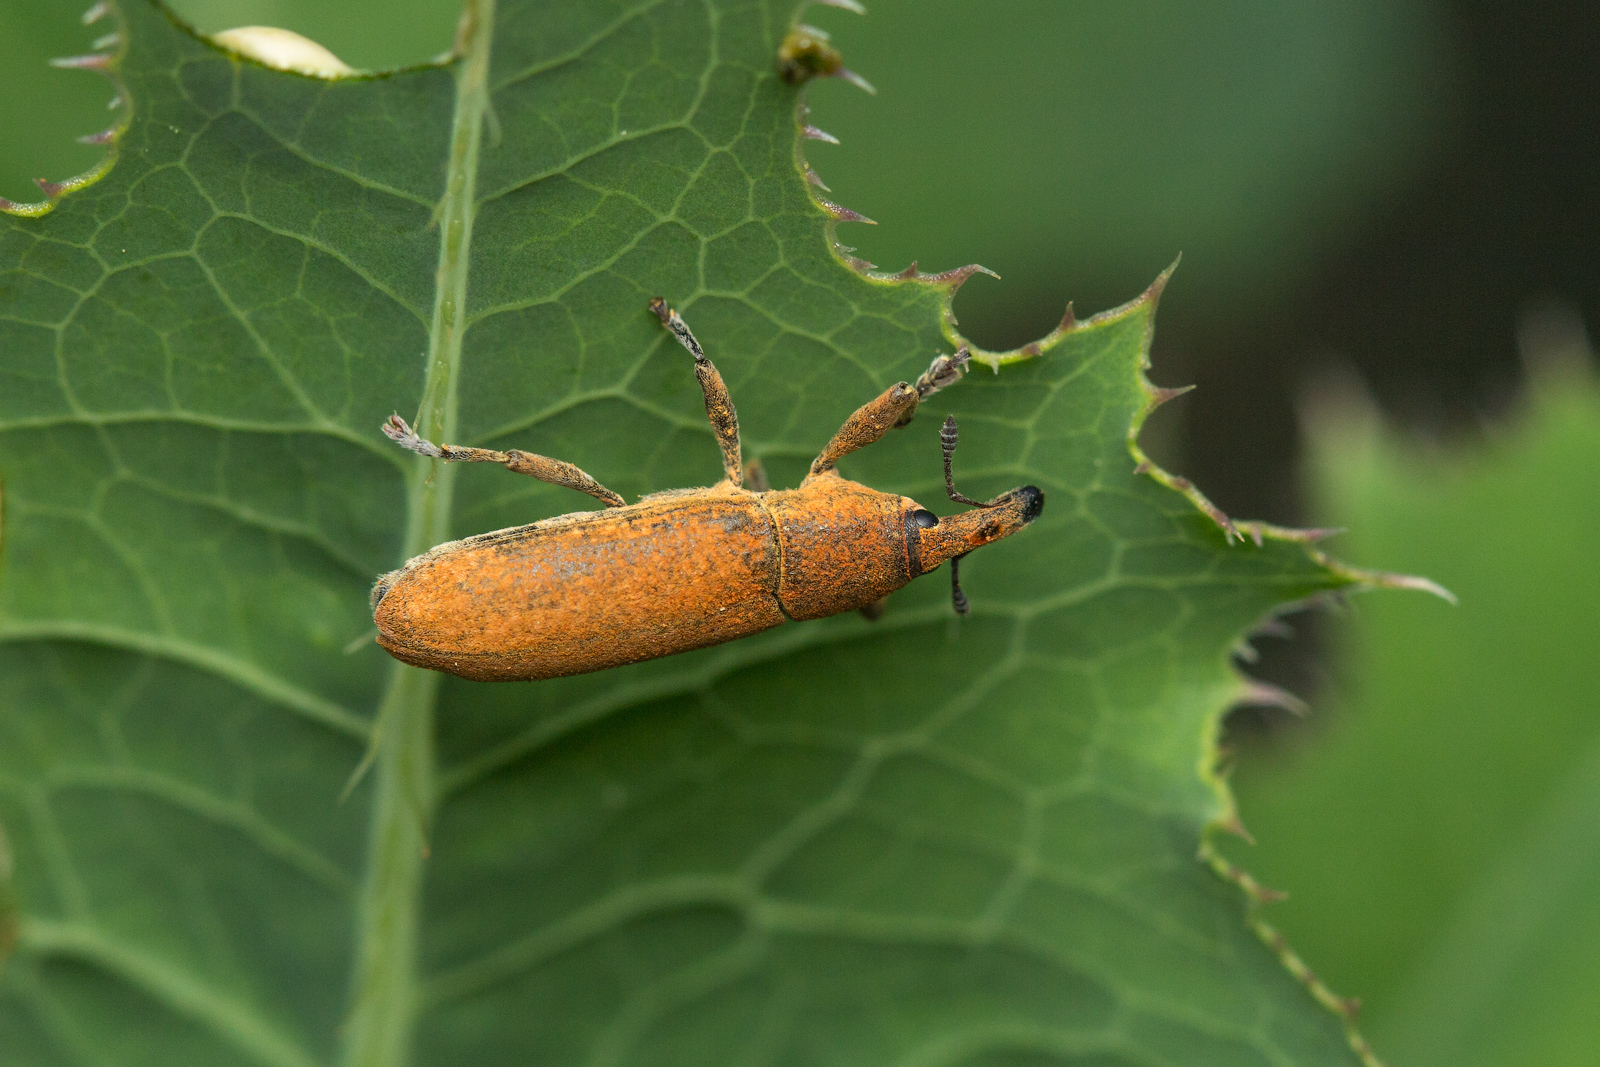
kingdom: Animalia
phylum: Arthropoda
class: Insecta
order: Coleoptera
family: Curculionidae
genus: Lixus
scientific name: Lixus punctiventris
